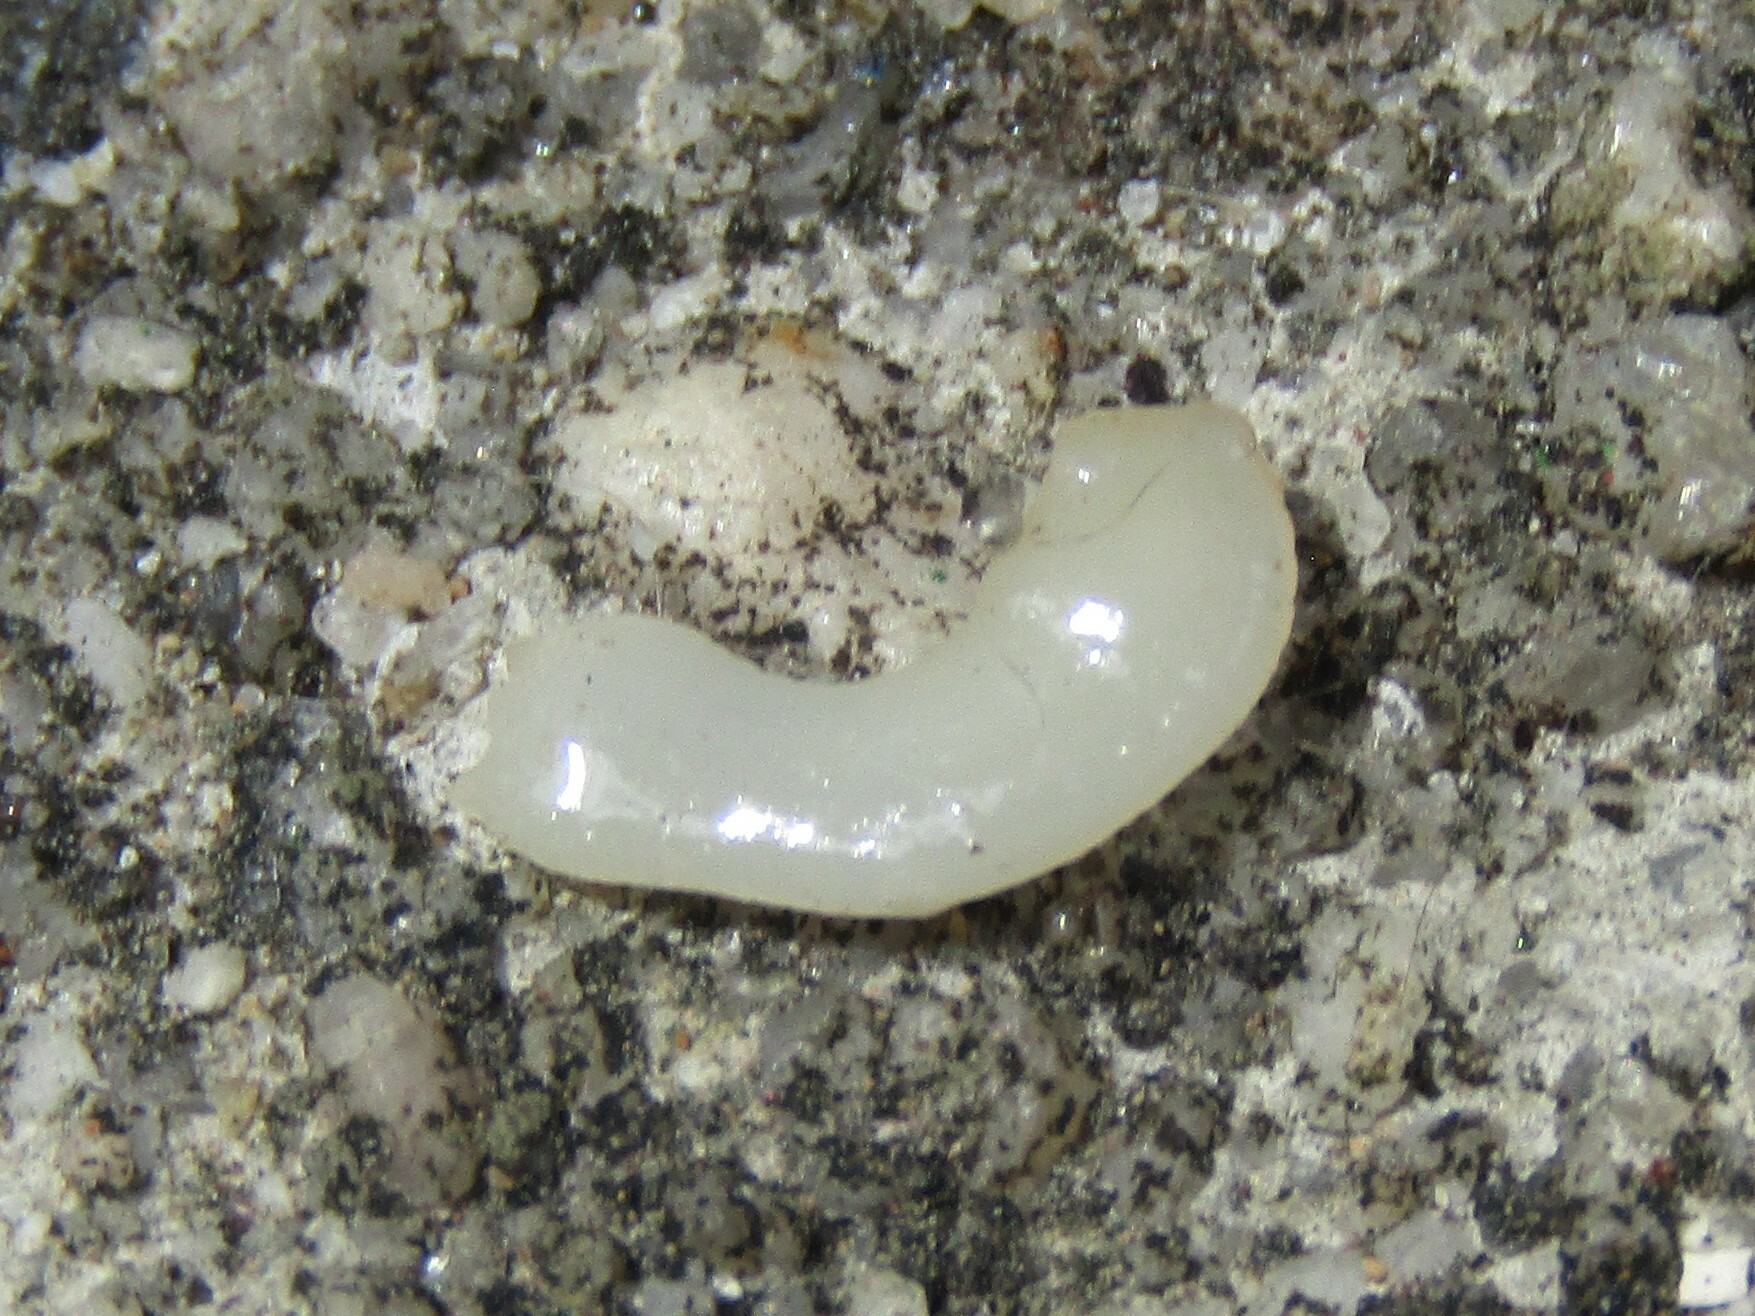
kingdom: Animalia
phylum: Platyhelminthes
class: Cestoda
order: Cyclophyllidea
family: Dipylidiidae
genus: Dipylidium
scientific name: Dipylidium caninum
